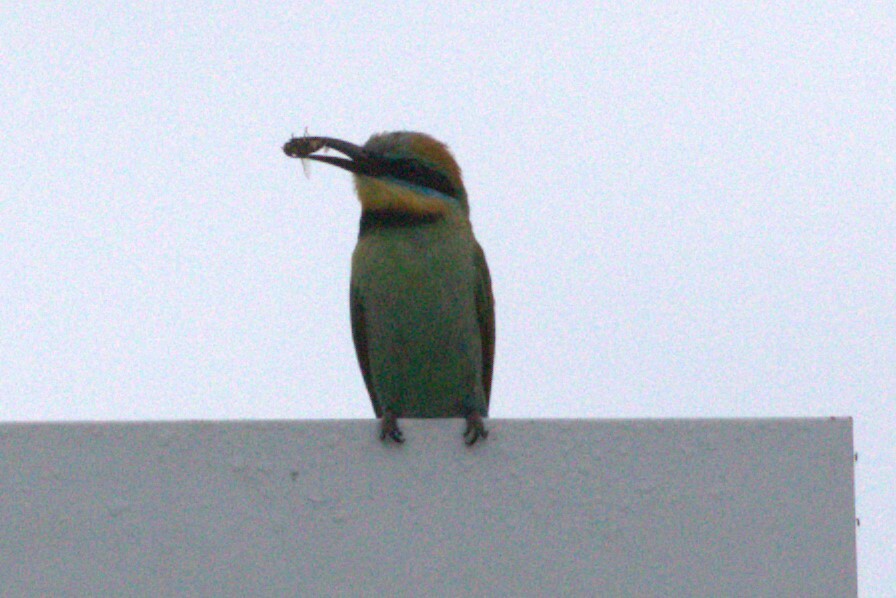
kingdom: Animalia
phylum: Chordata
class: Aves
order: Coraciiformes
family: Meropidae
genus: Merops
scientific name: Merops ornatus
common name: Rainbow bee-eater
